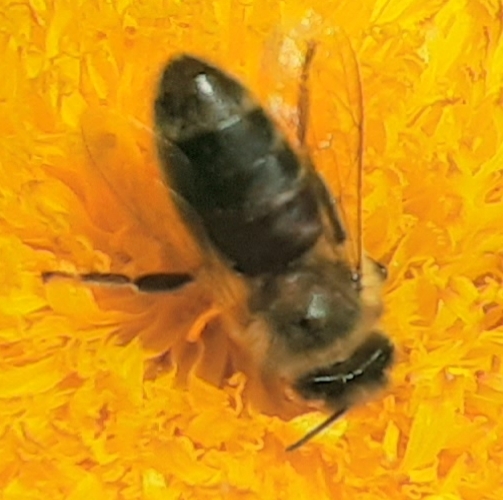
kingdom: Animalia
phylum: Arthropoda
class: Insecta
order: Hymenoptera
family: Apidae
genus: Apis
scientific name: Apis mellifera
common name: Honey bee
